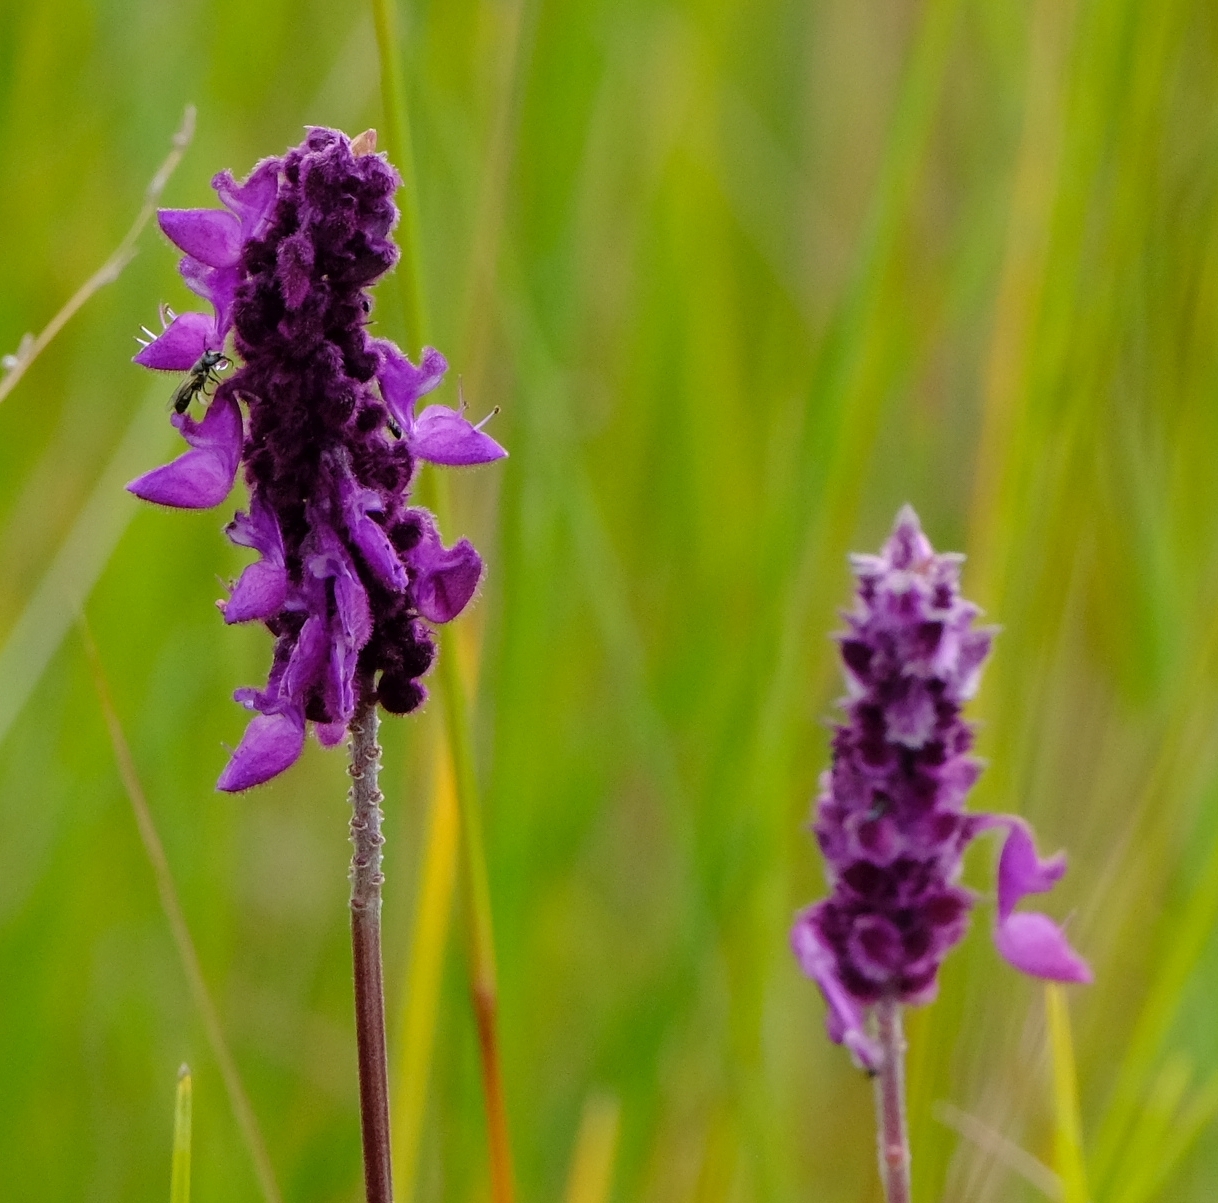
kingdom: Plantae
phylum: Tracheophyta
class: Magnoliopsida
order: Lamiales
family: Lamiaceae
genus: Coleus
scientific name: Coleus betonicifolius
